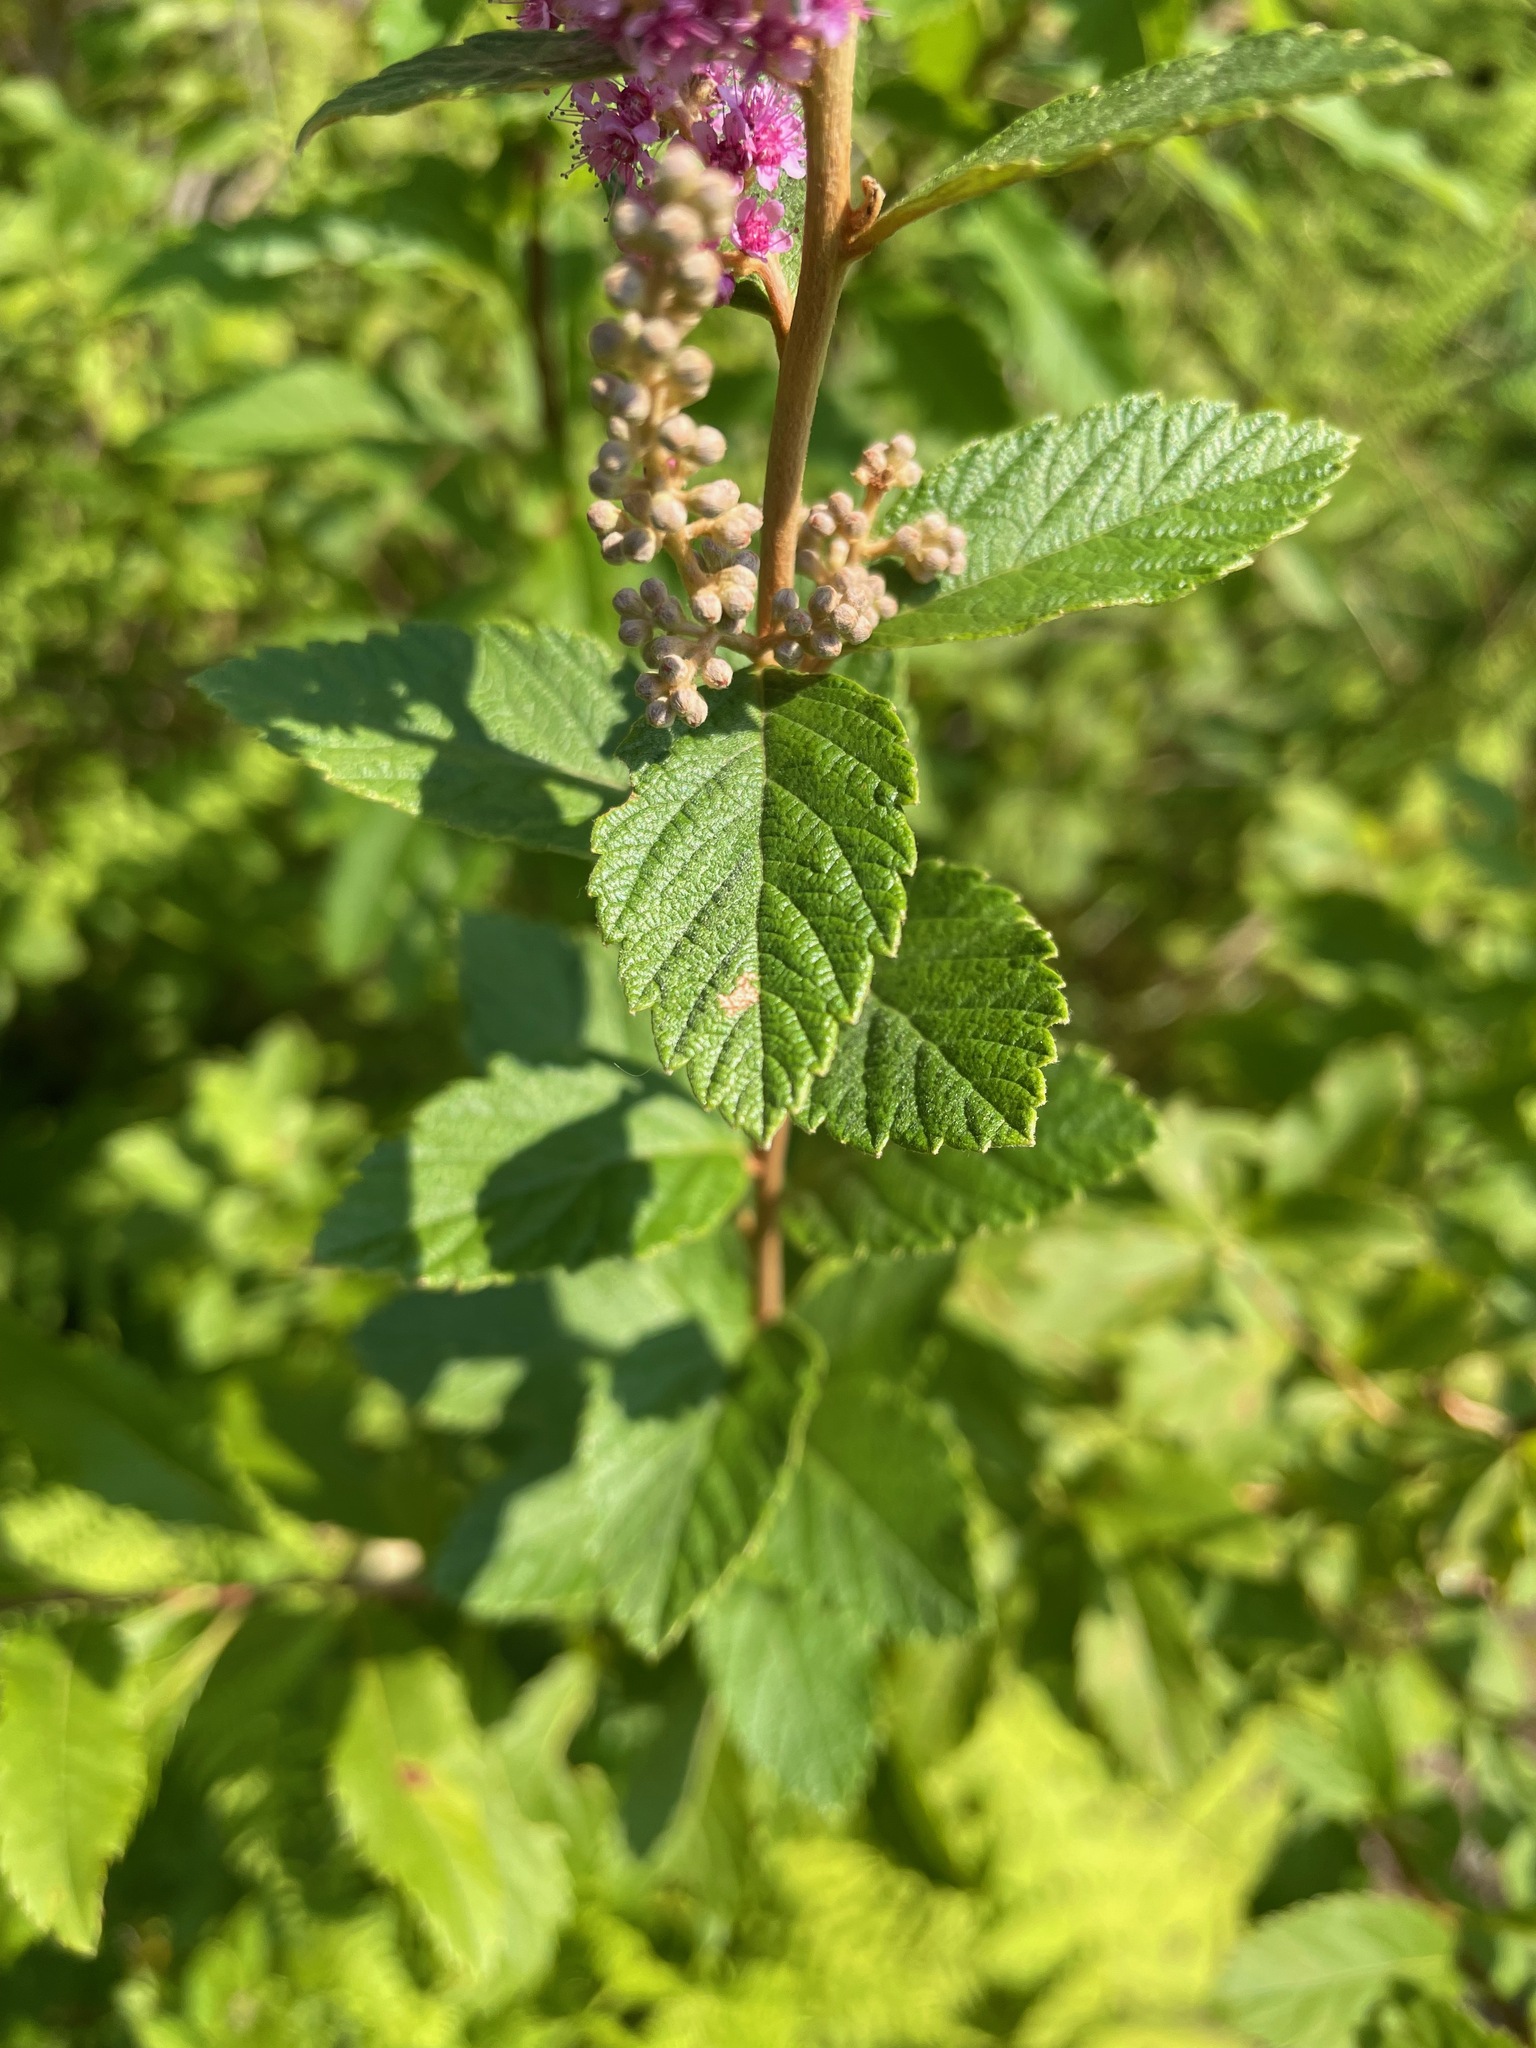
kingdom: Plantae
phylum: Tracheophyta
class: Magnoliopsida
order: Rosales
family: Rosaceae
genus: Spiraea
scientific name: Spiraea tomentosa
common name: Hardhack
